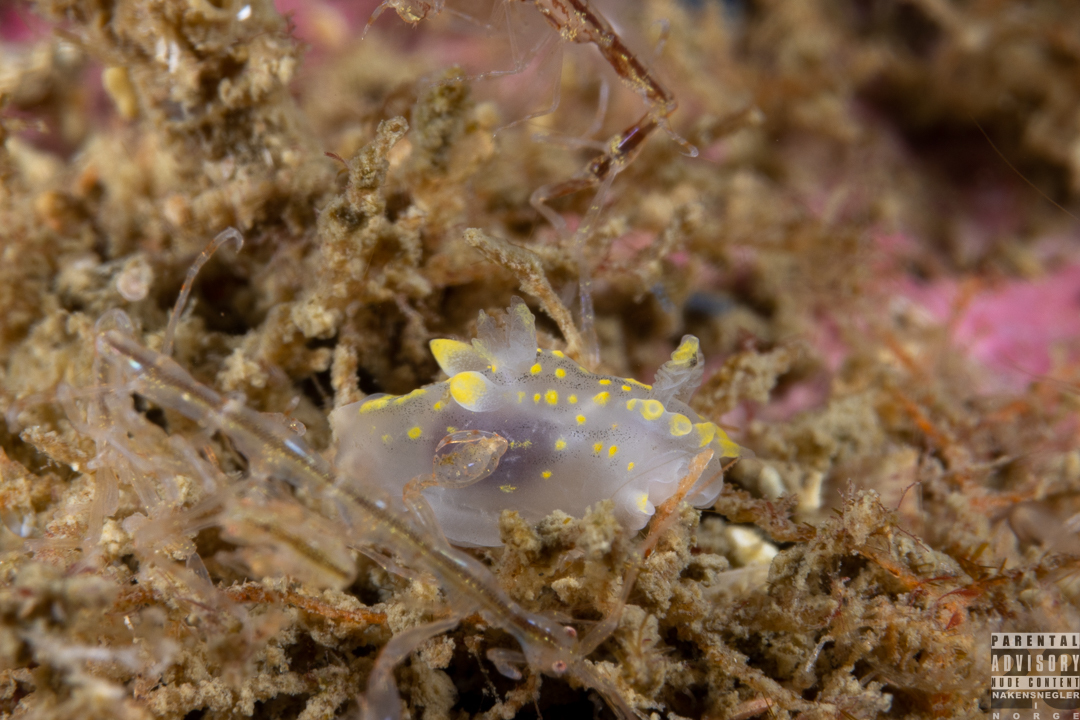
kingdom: Animalia
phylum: Mollusca
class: Gastropoda
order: Nudibranchia
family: Polyceridae
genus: Polycera
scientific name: Polycera norvegica
